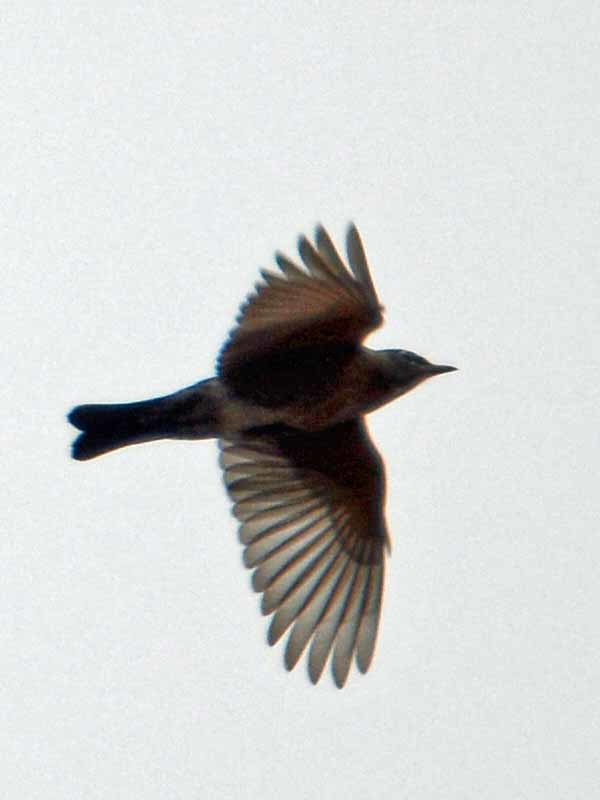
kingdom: Animalia
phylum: Chordata
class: Aves
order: Passeriformes
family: Turdidae
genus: Turdus
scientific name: Turdus migratorius
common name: American robin
